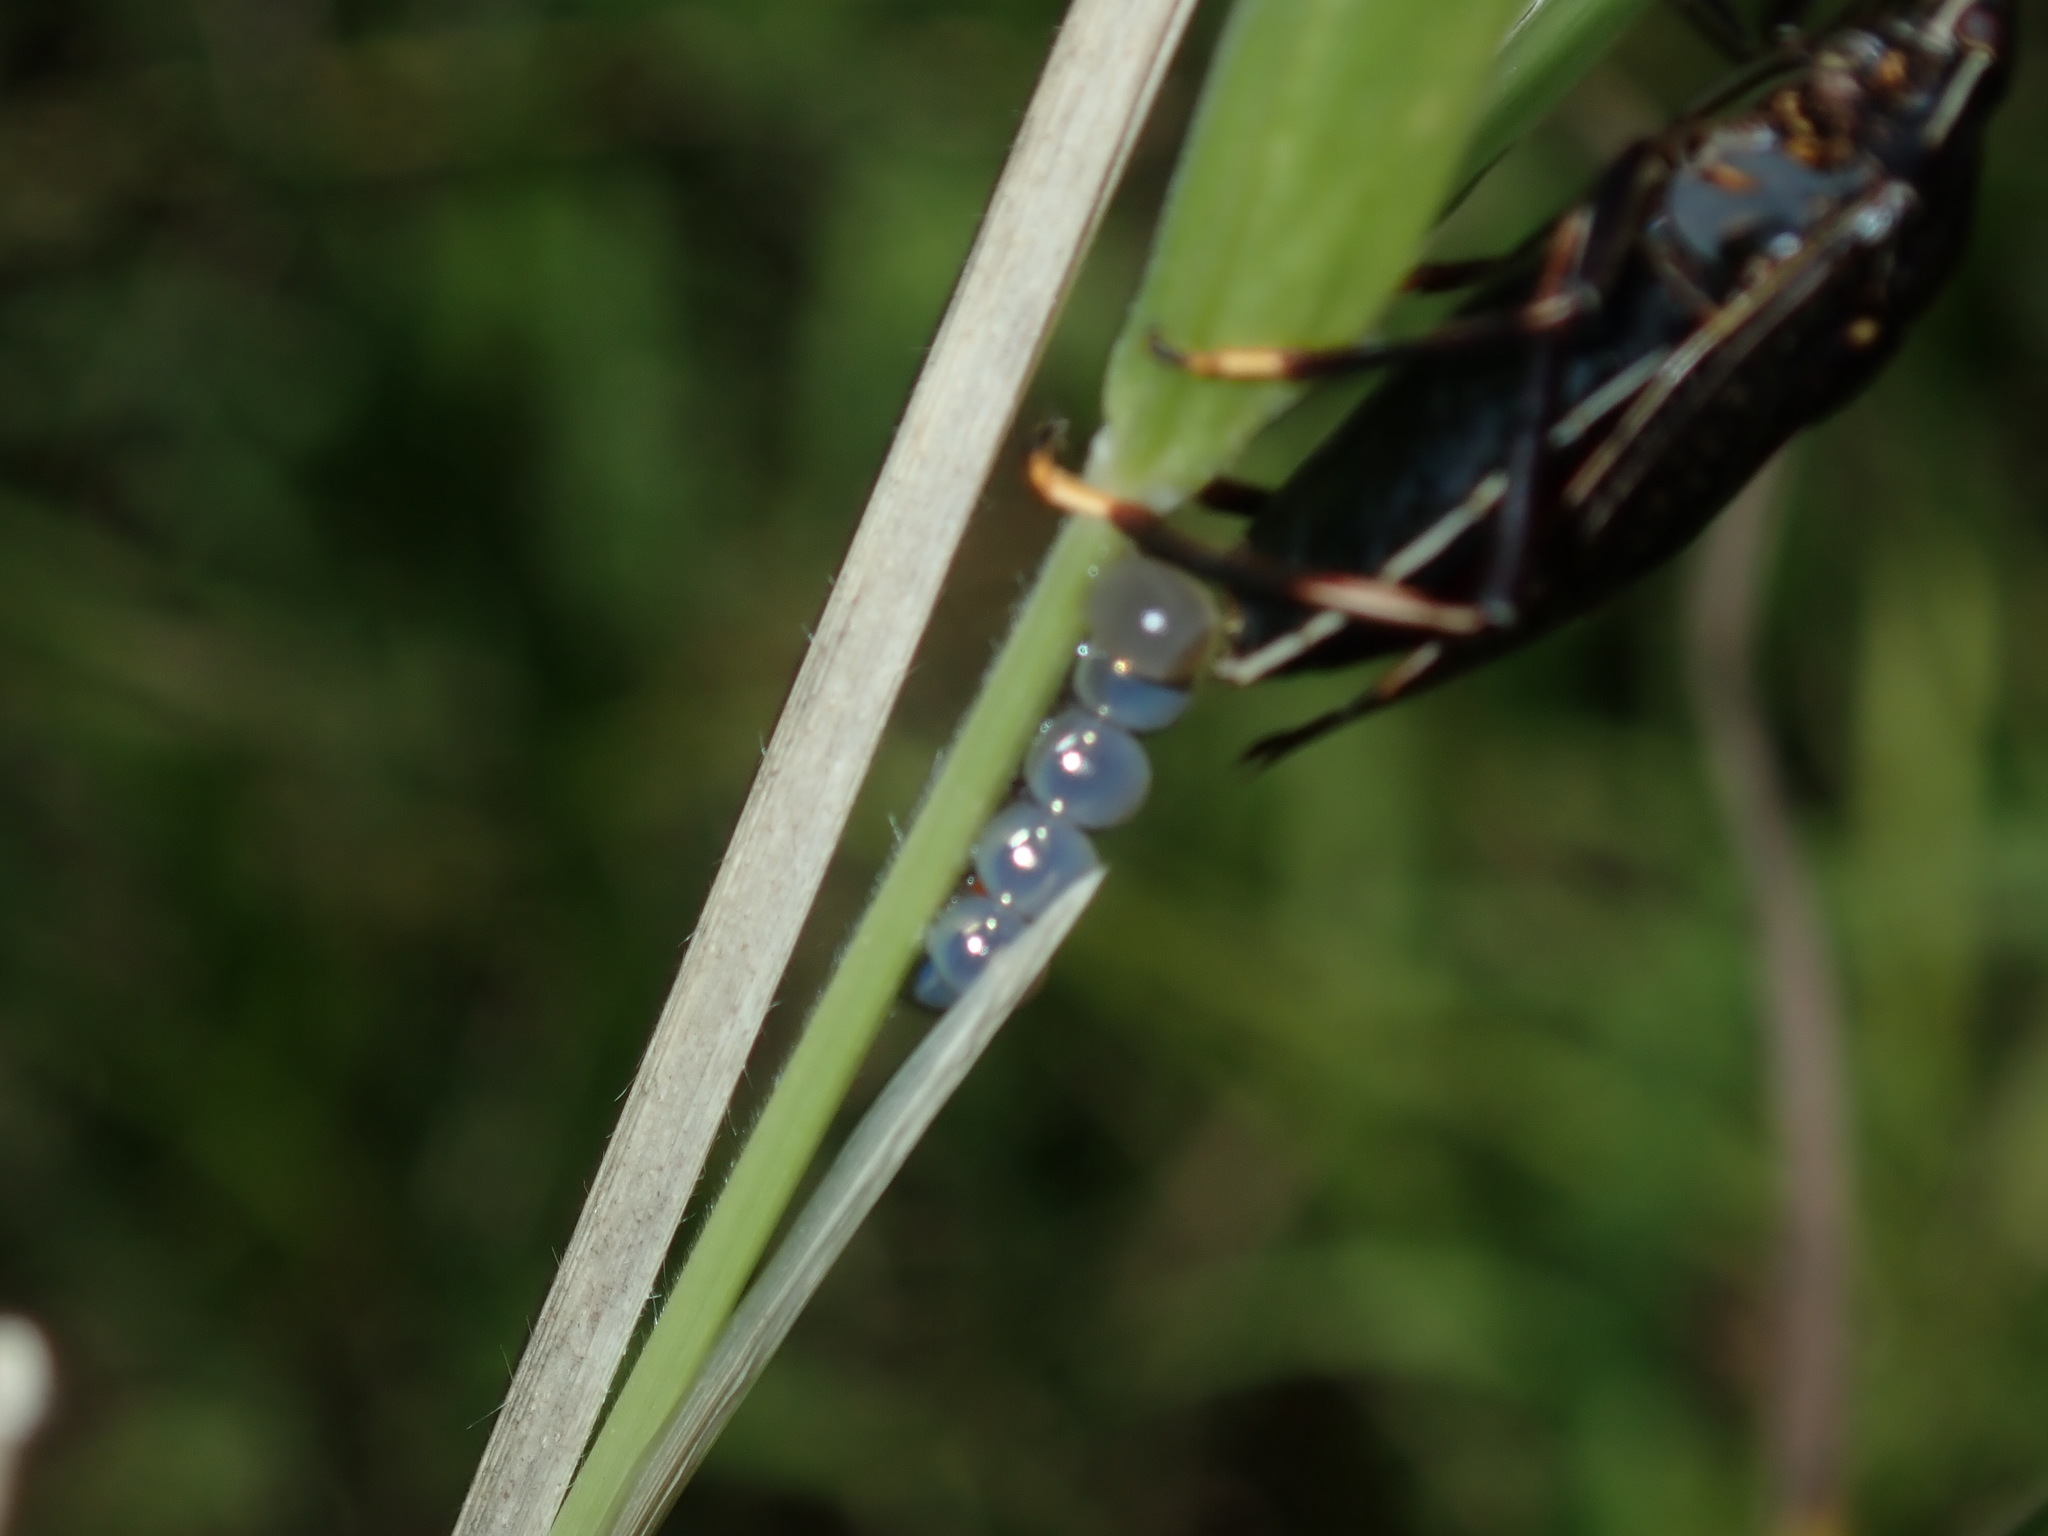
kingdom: Animalia
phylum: Arthropoda
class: Insecta
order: Hemiptera
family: Pentatomidae
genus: Poecilometis
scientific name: Poecilometis
